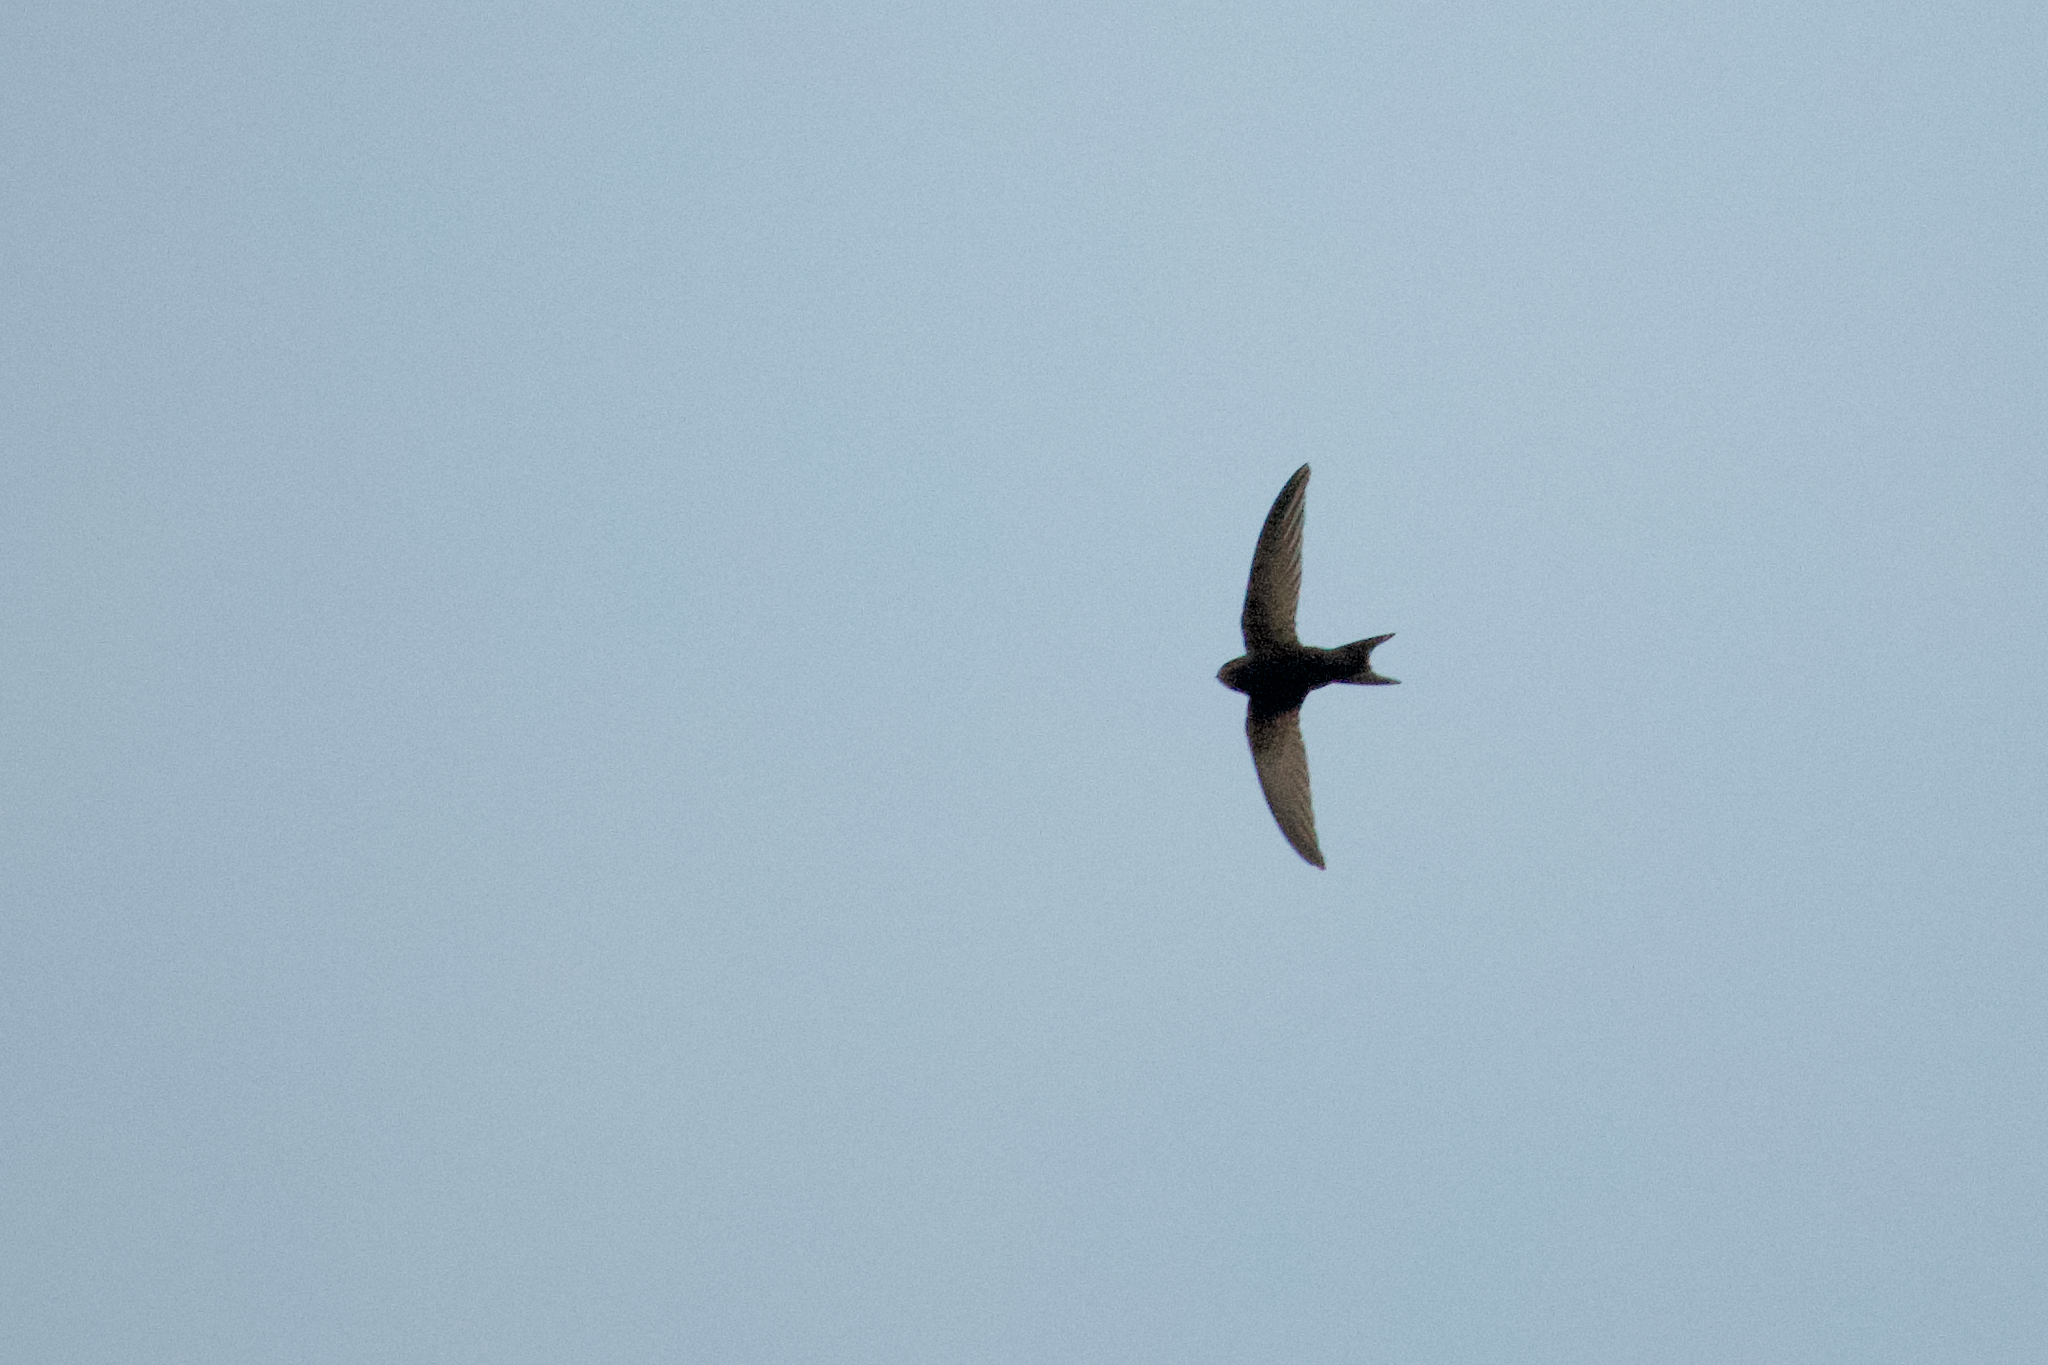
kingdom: Animalia
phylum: Chordata
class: Aves
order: Apodiformes
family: Apodidae
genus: Apus
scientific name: Apus apus
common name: Common swift
